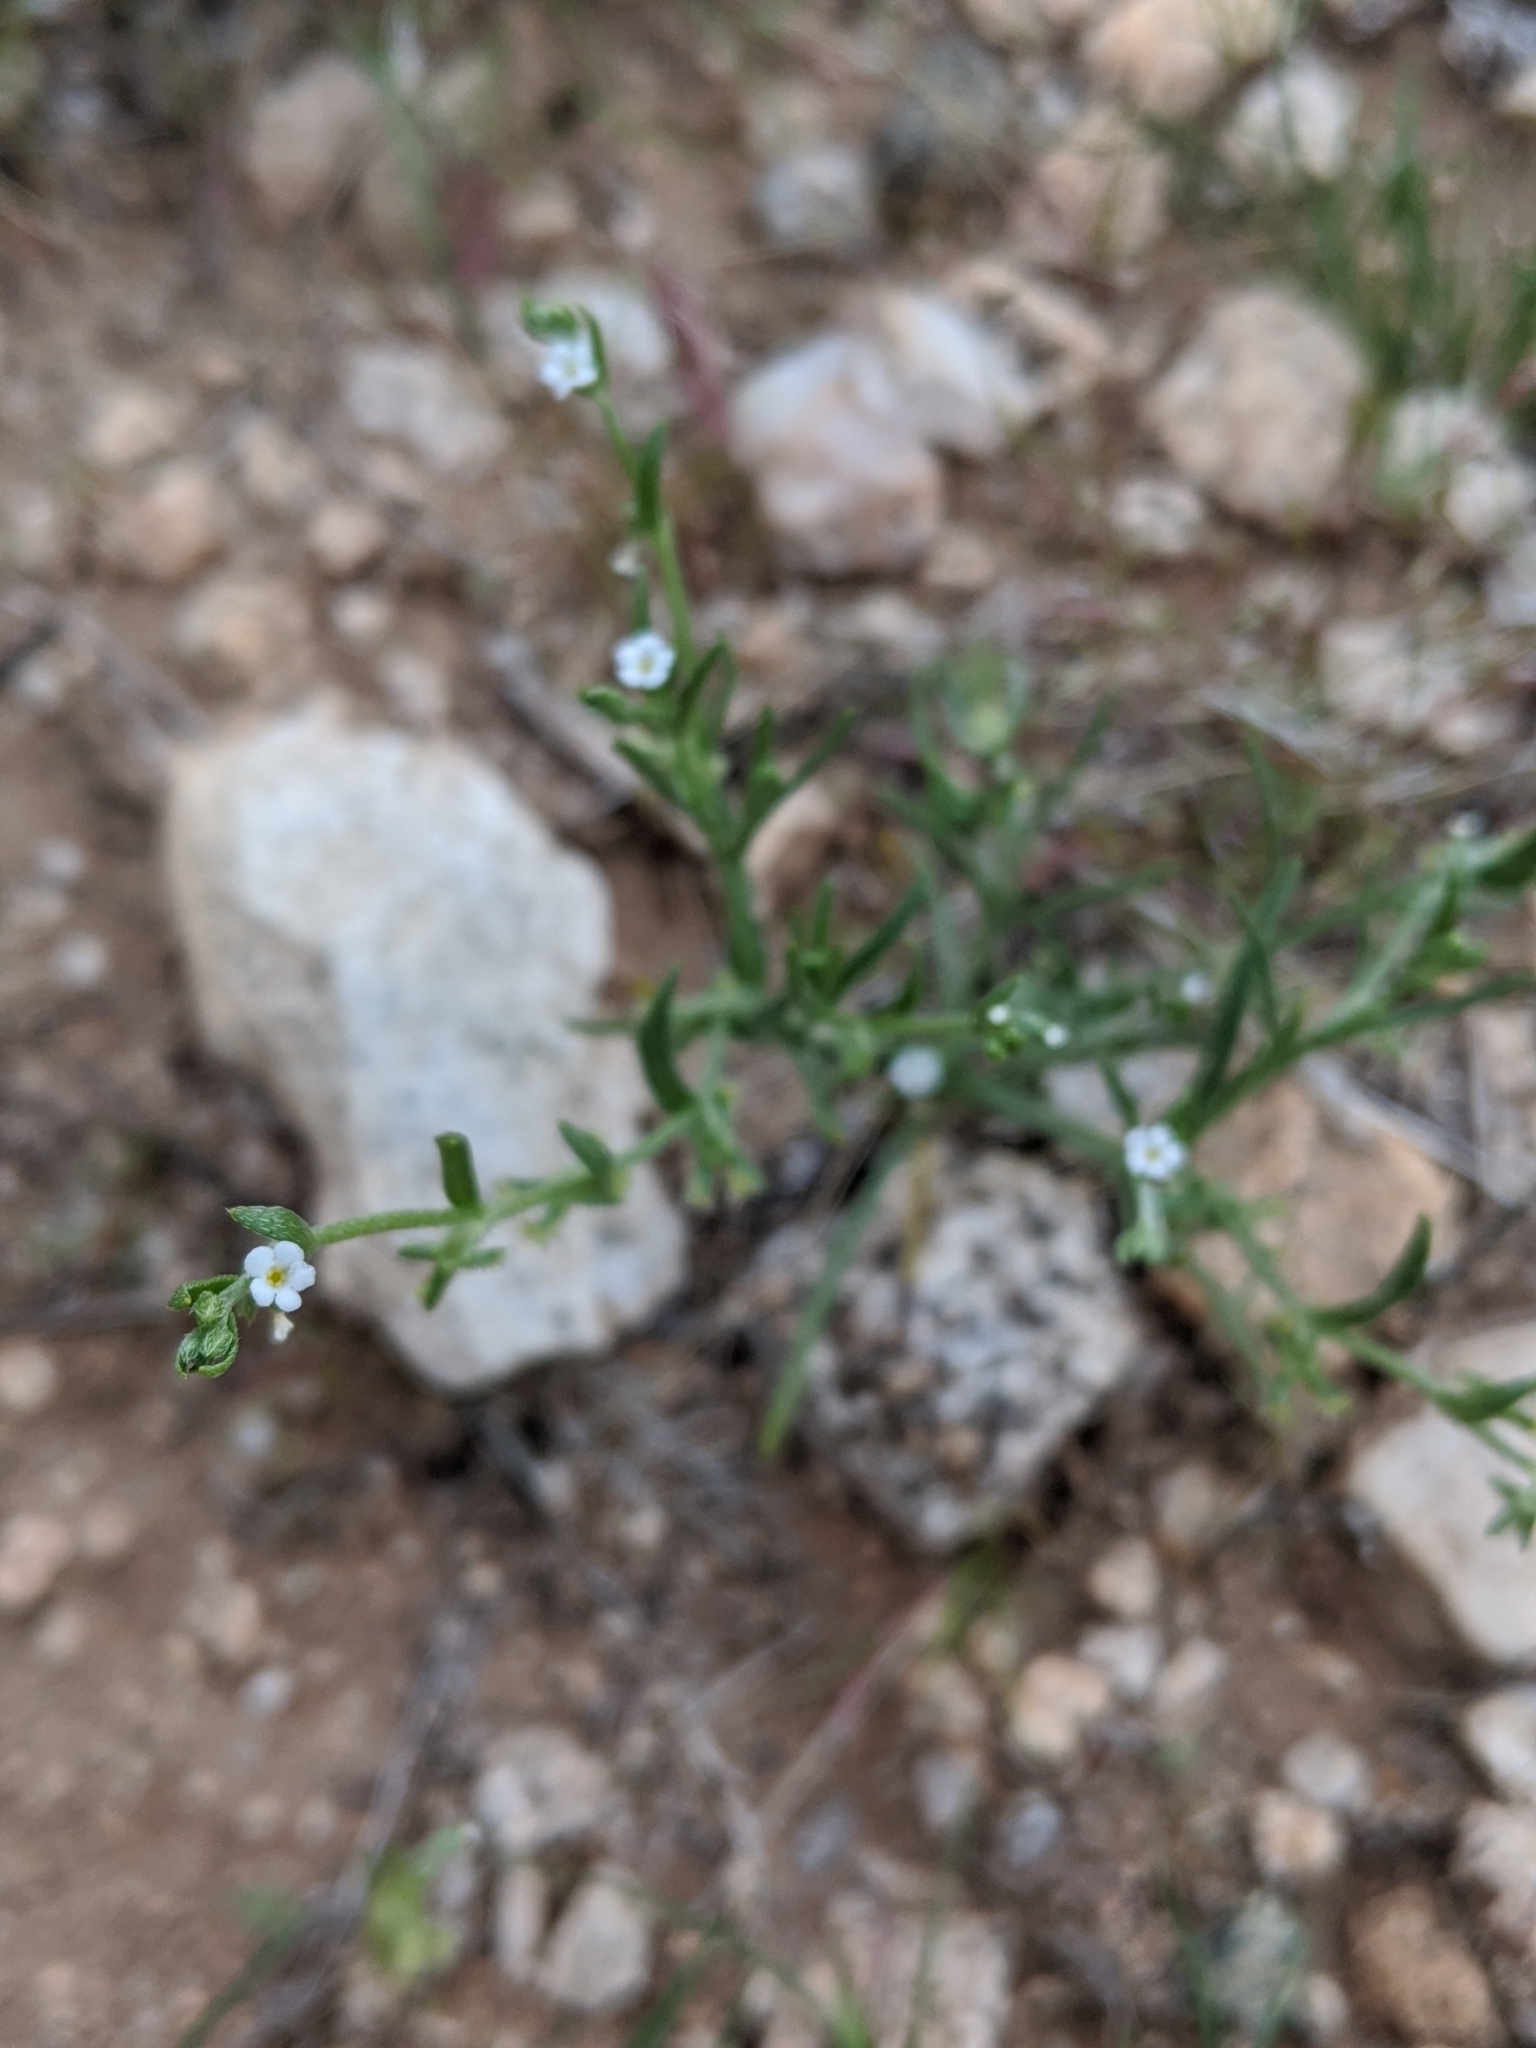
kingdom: Plantae
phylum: Tracheophyta
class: Magnoliopsida
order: Boraginales
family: Boraginaceae
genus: Pectocarya
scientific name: Pectocarya recurvata
